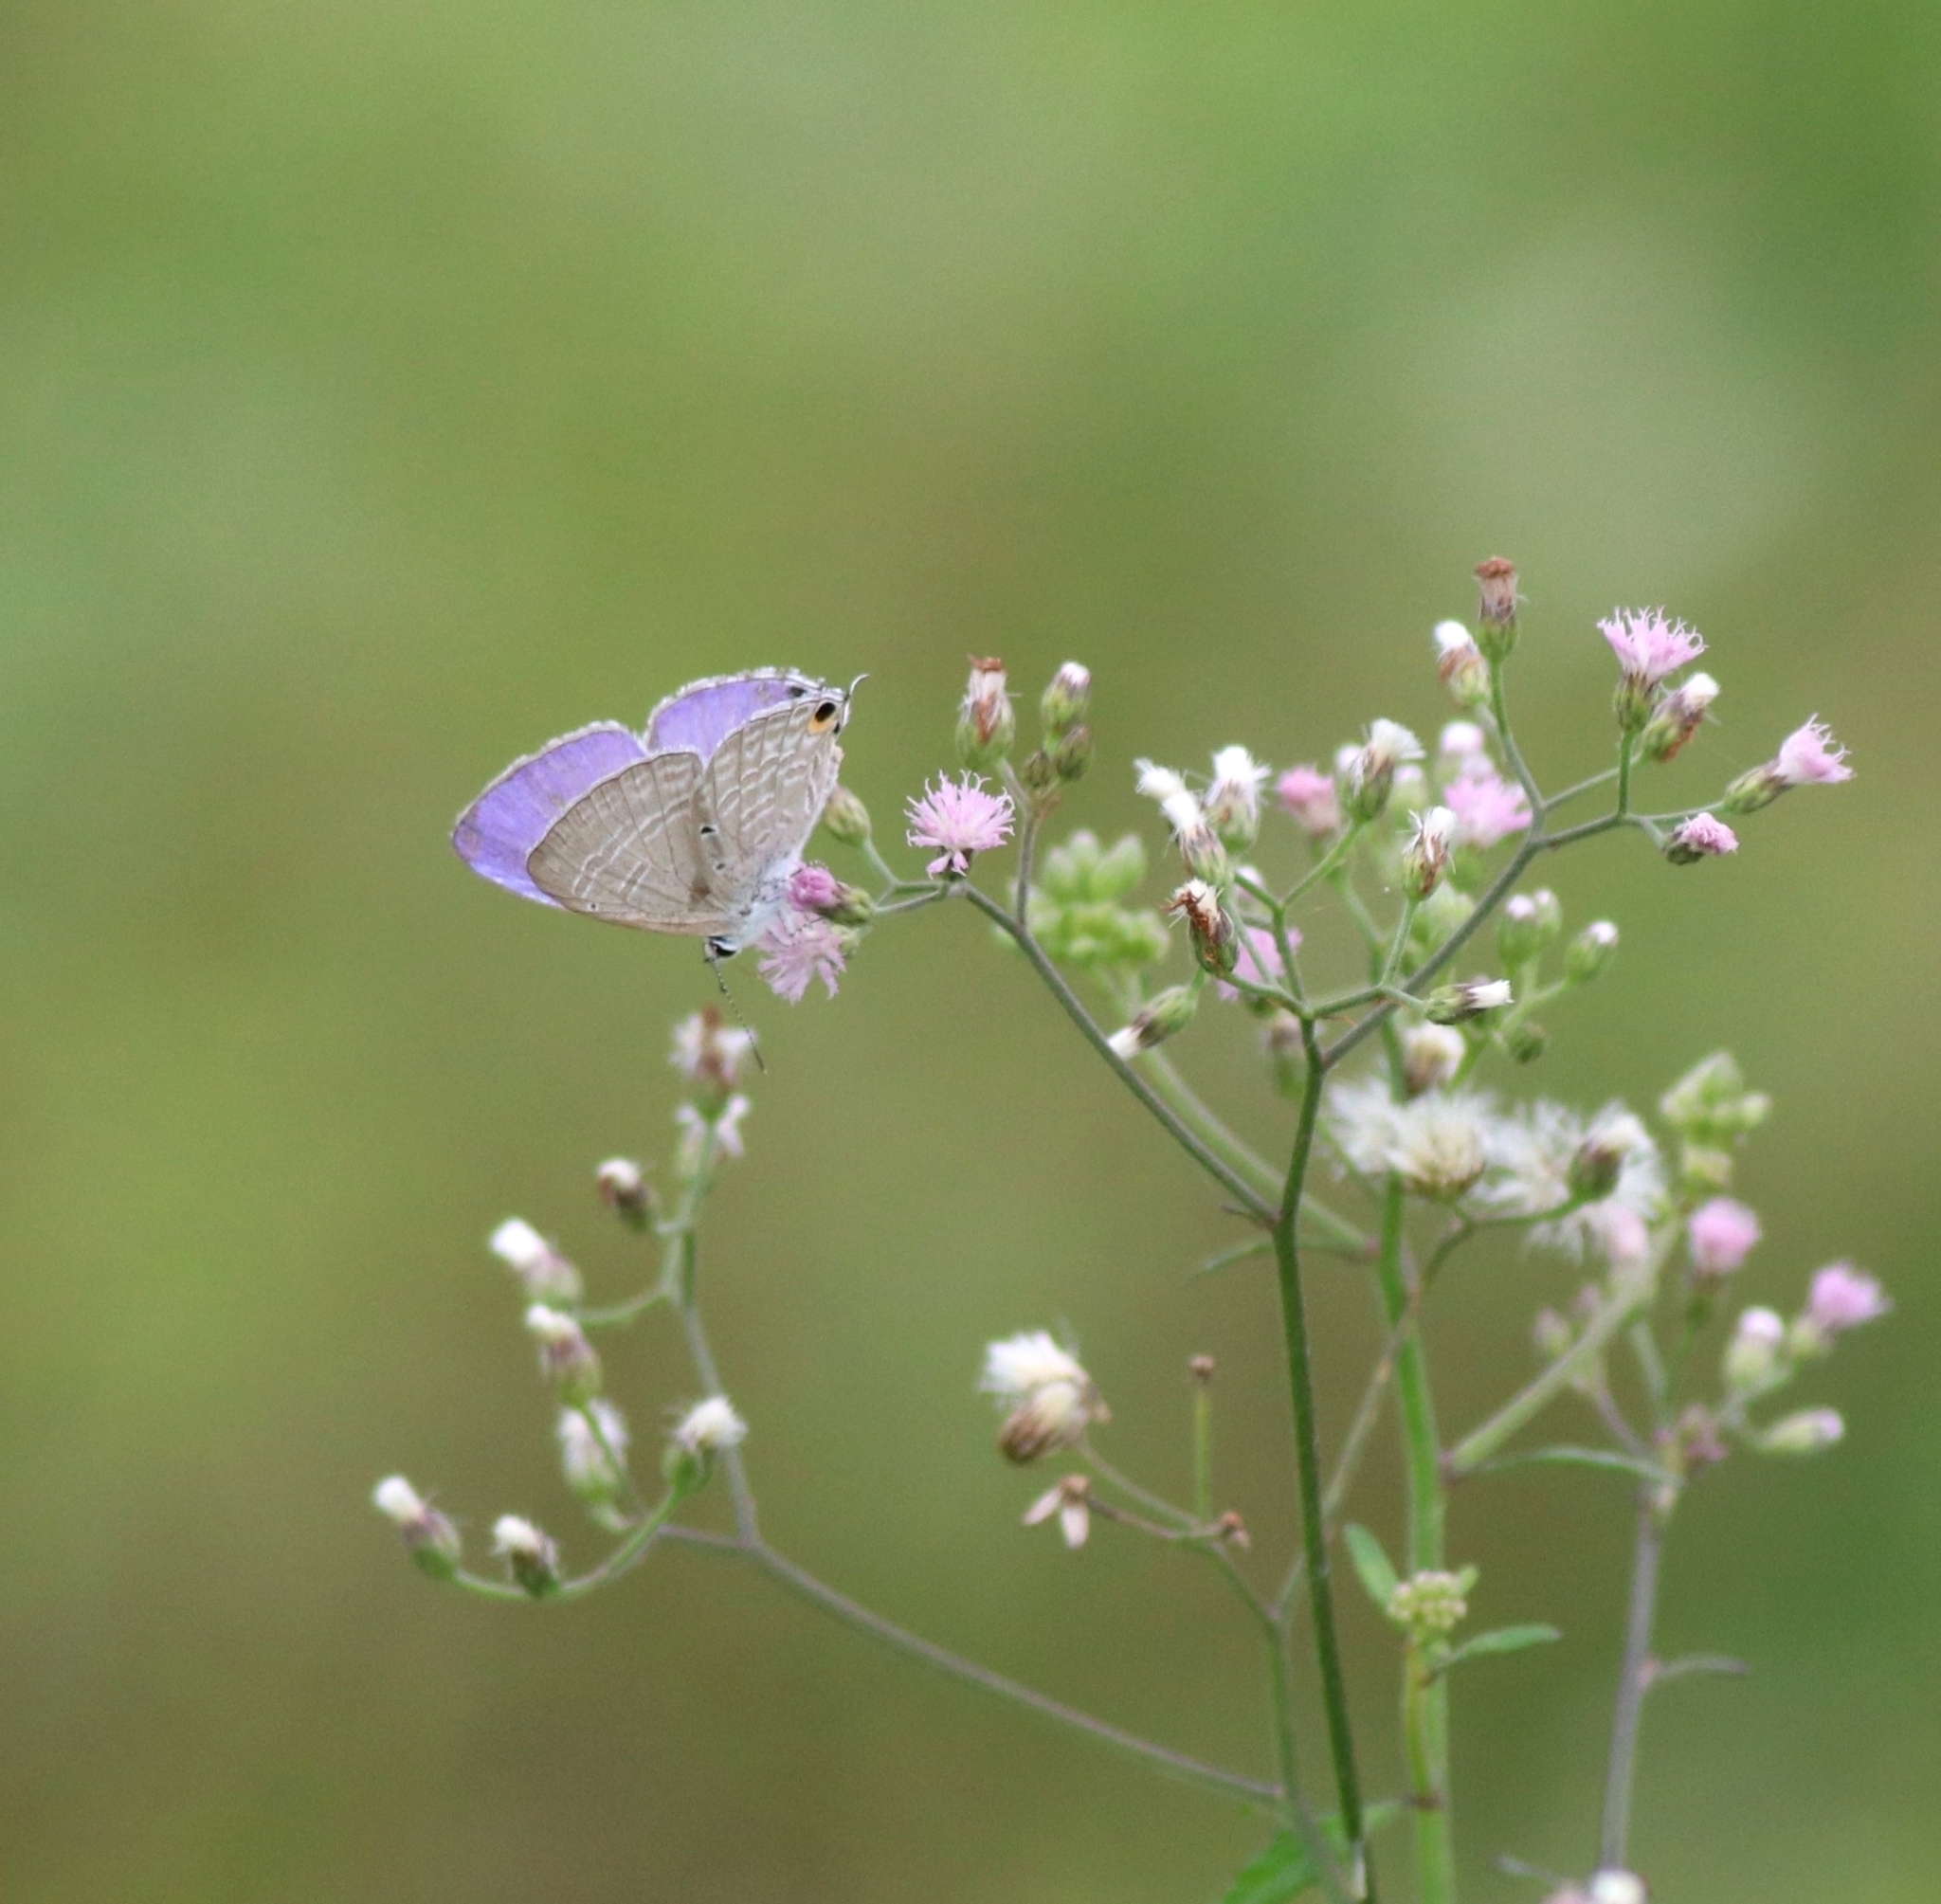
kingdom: Animalia
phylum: Arthropoda
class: Insecta
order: Lepidoptera
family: Lycaenidae
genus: Catochrysops
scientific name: Catochrysops strabo
